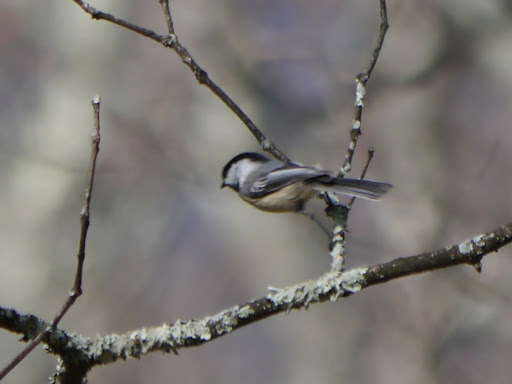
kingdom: Animalia
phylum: Chordata
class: Aves
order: Passeriformes
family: Paridae
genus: Poecile
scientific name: Poecile carolinensis
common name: Carolina chickadee
